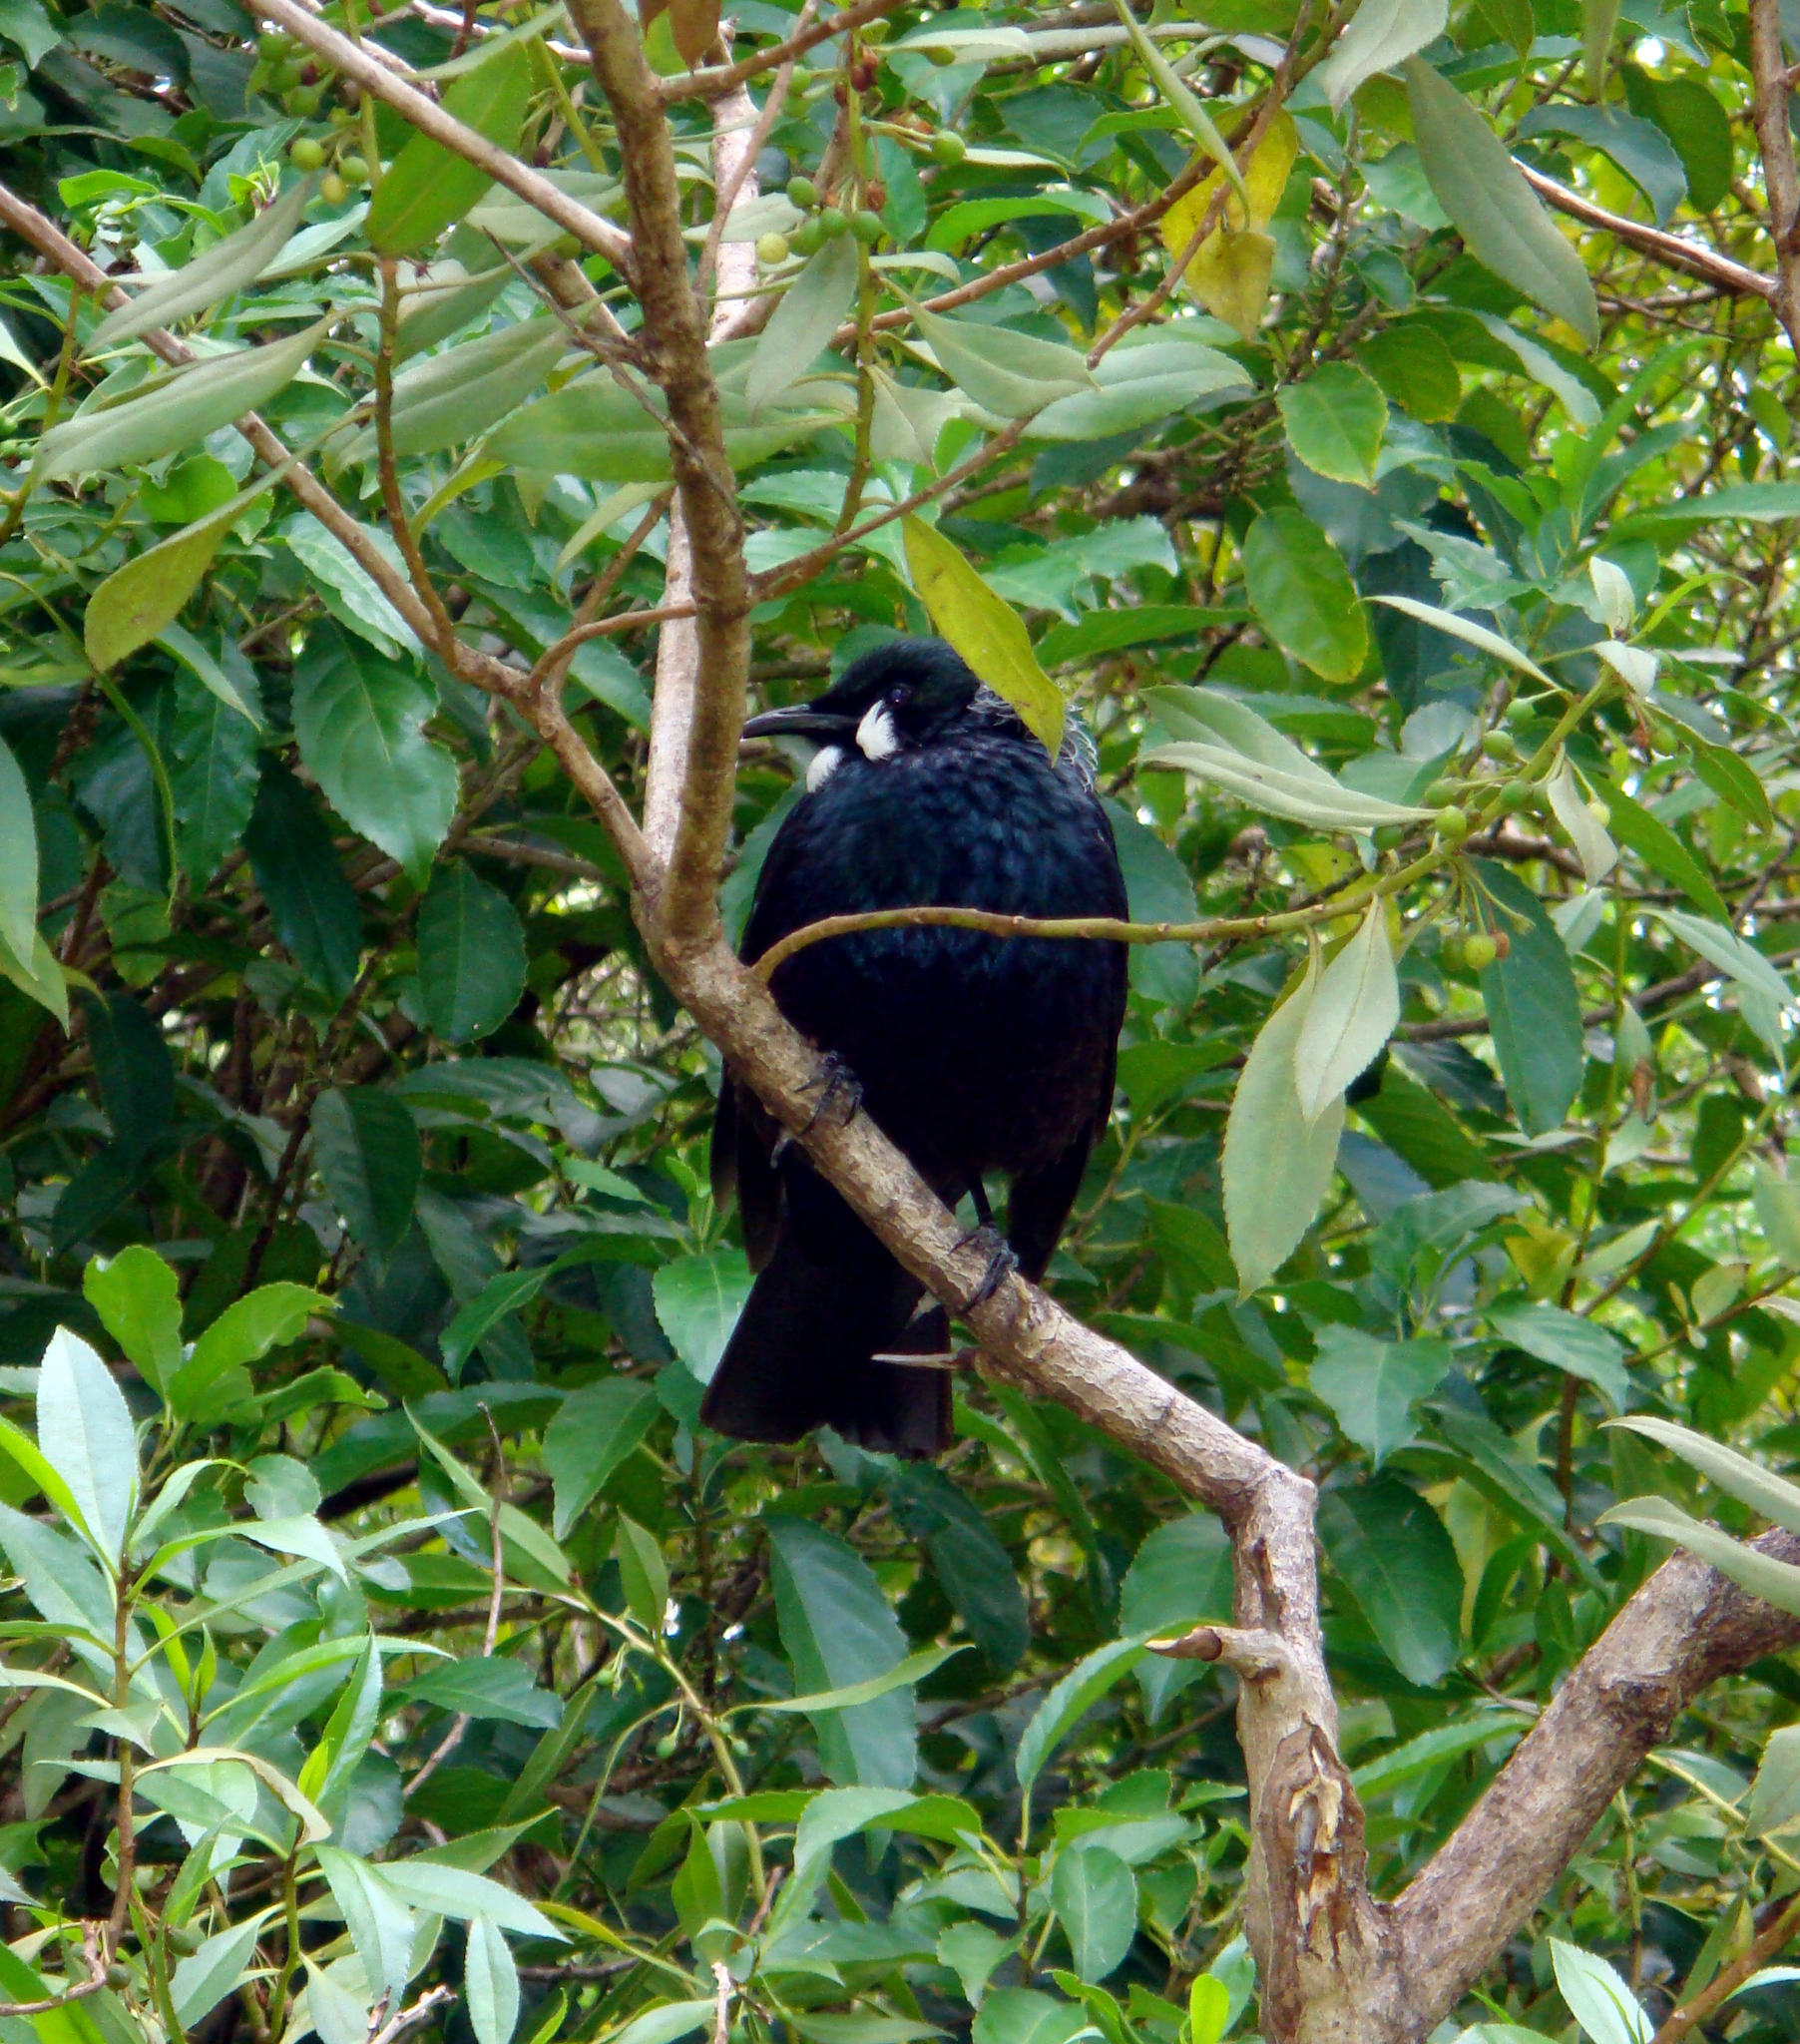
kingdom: Animalia
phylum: Chordata
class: Aves
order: Passeriformes
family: Meliphagidae
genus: Prosthemadera
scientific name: Prosthemadera novaeseelandiae
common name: Tui
